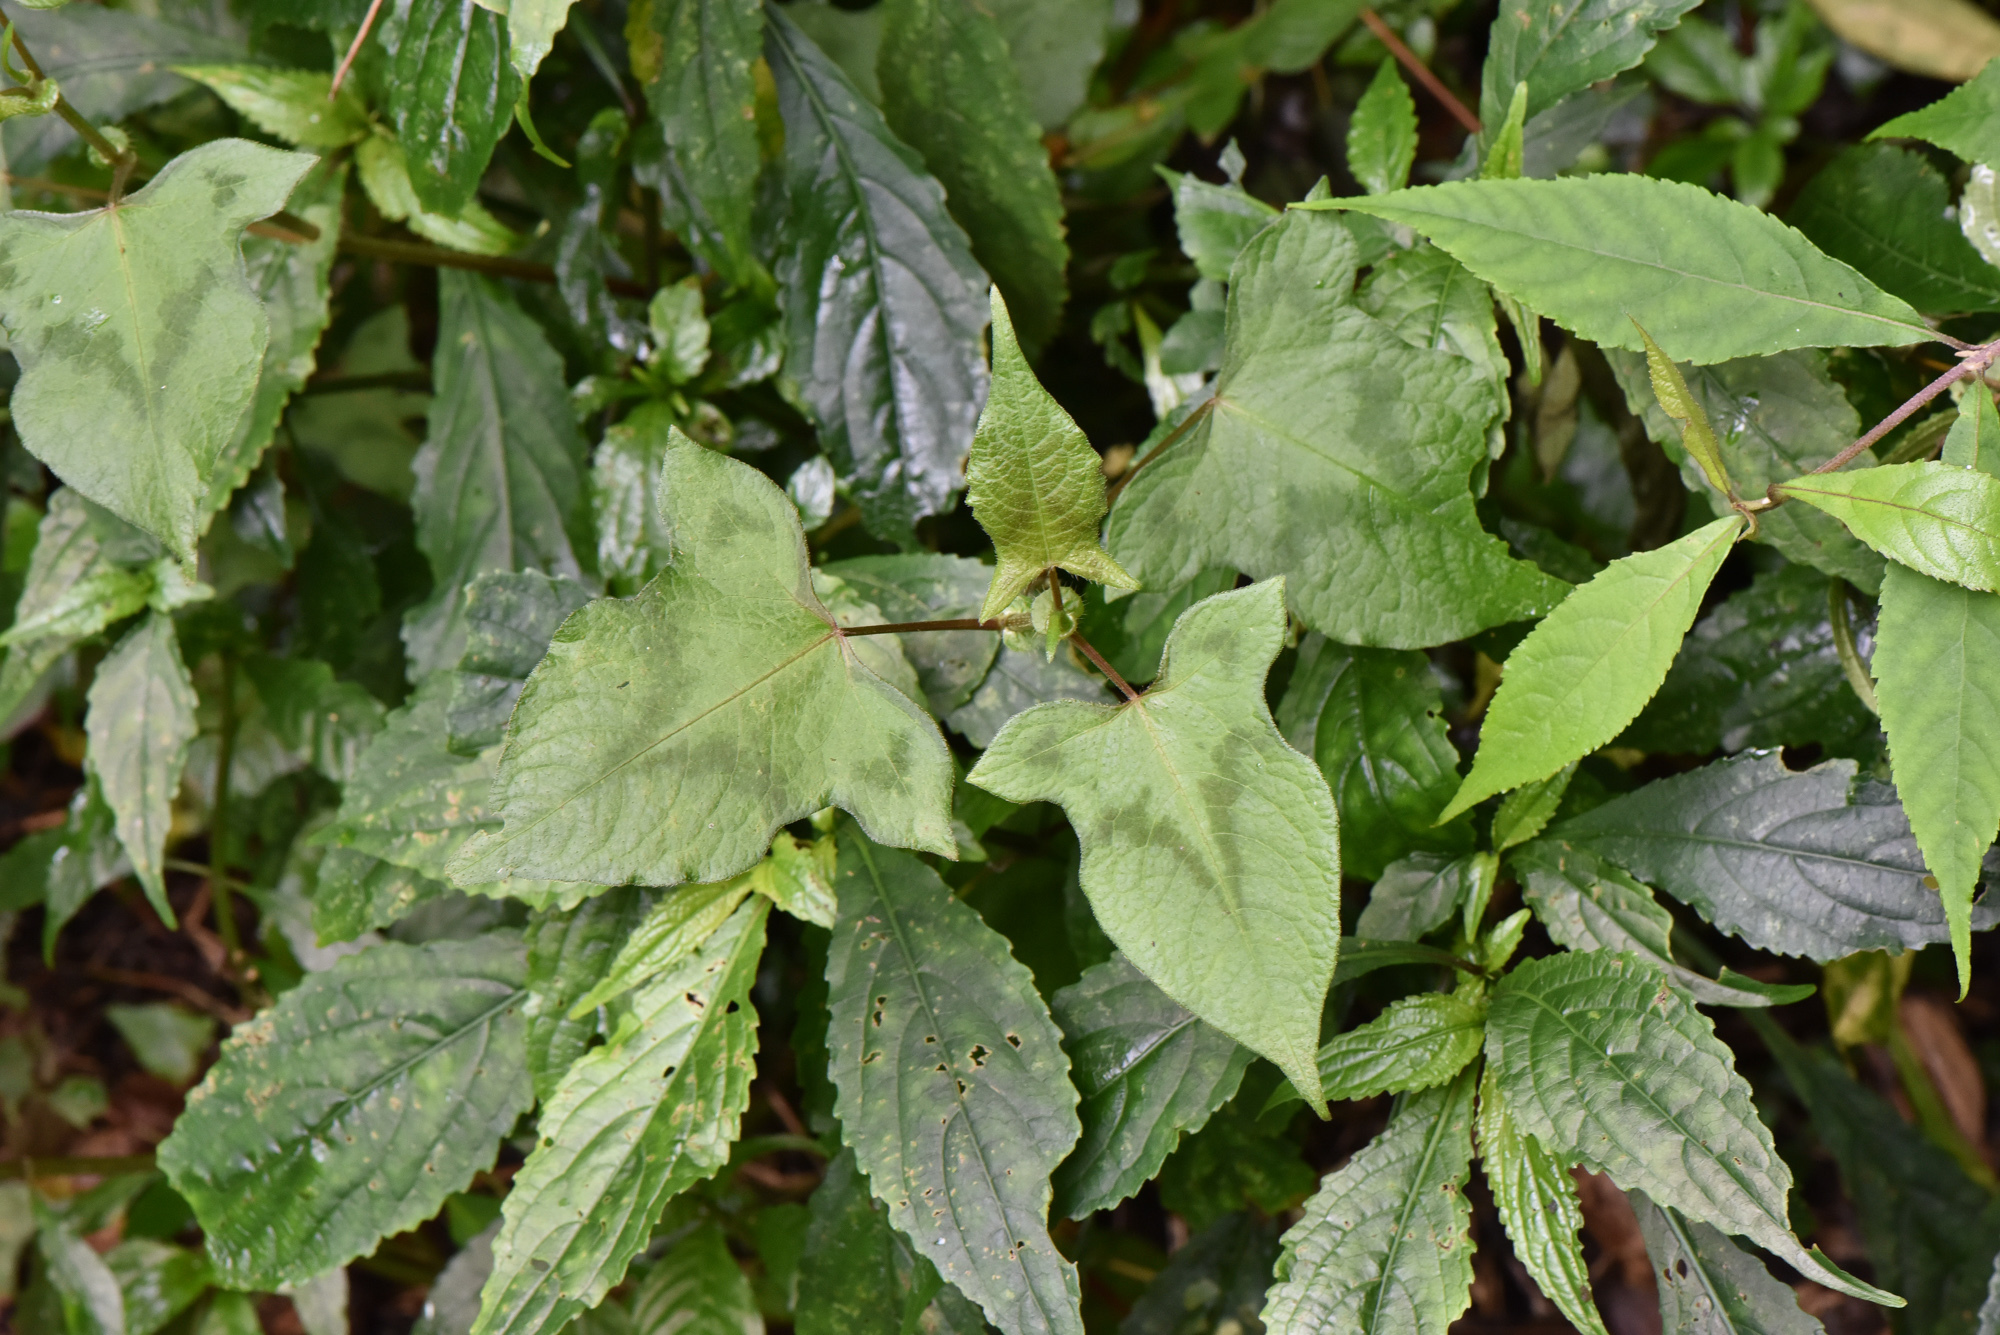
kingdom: Plantae
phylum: Tracheophyta
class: Magnoliopsida
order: Caryophyllales
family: Polygonaceae
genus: Persicaria
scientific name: Persicaria biconvexa
